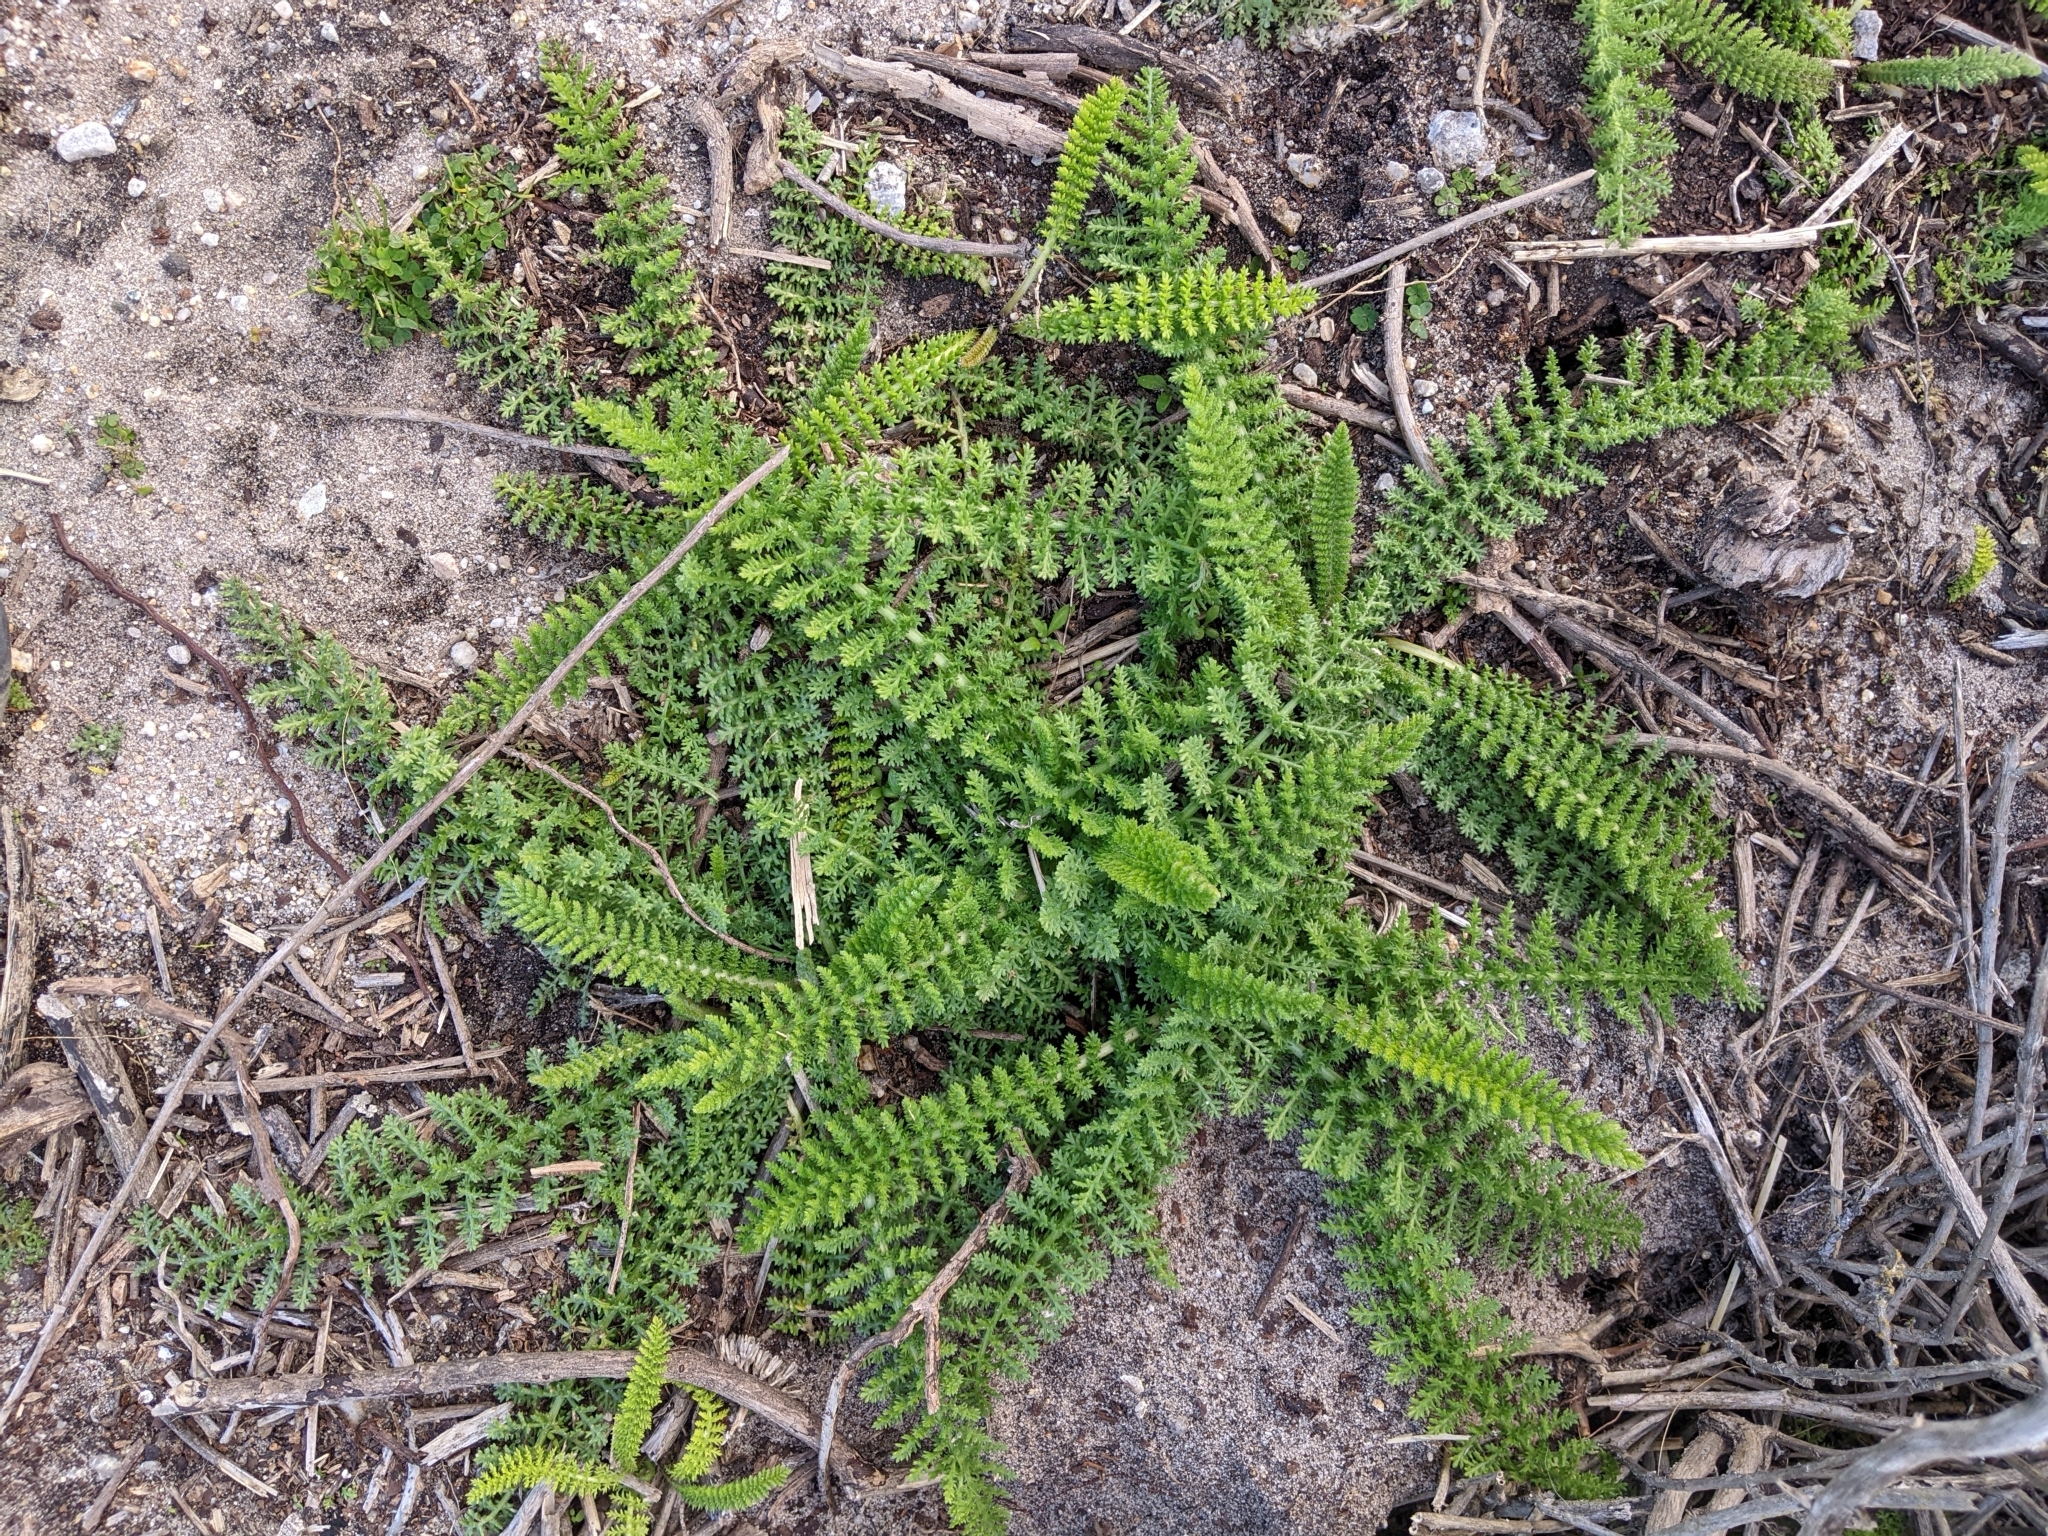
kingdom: Plantae
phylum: Tracheophyta
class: Magnoliopsida
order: Asterales
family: Asteraceae
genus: Achillea
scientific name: Achillea millefolium
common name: Yarrow
